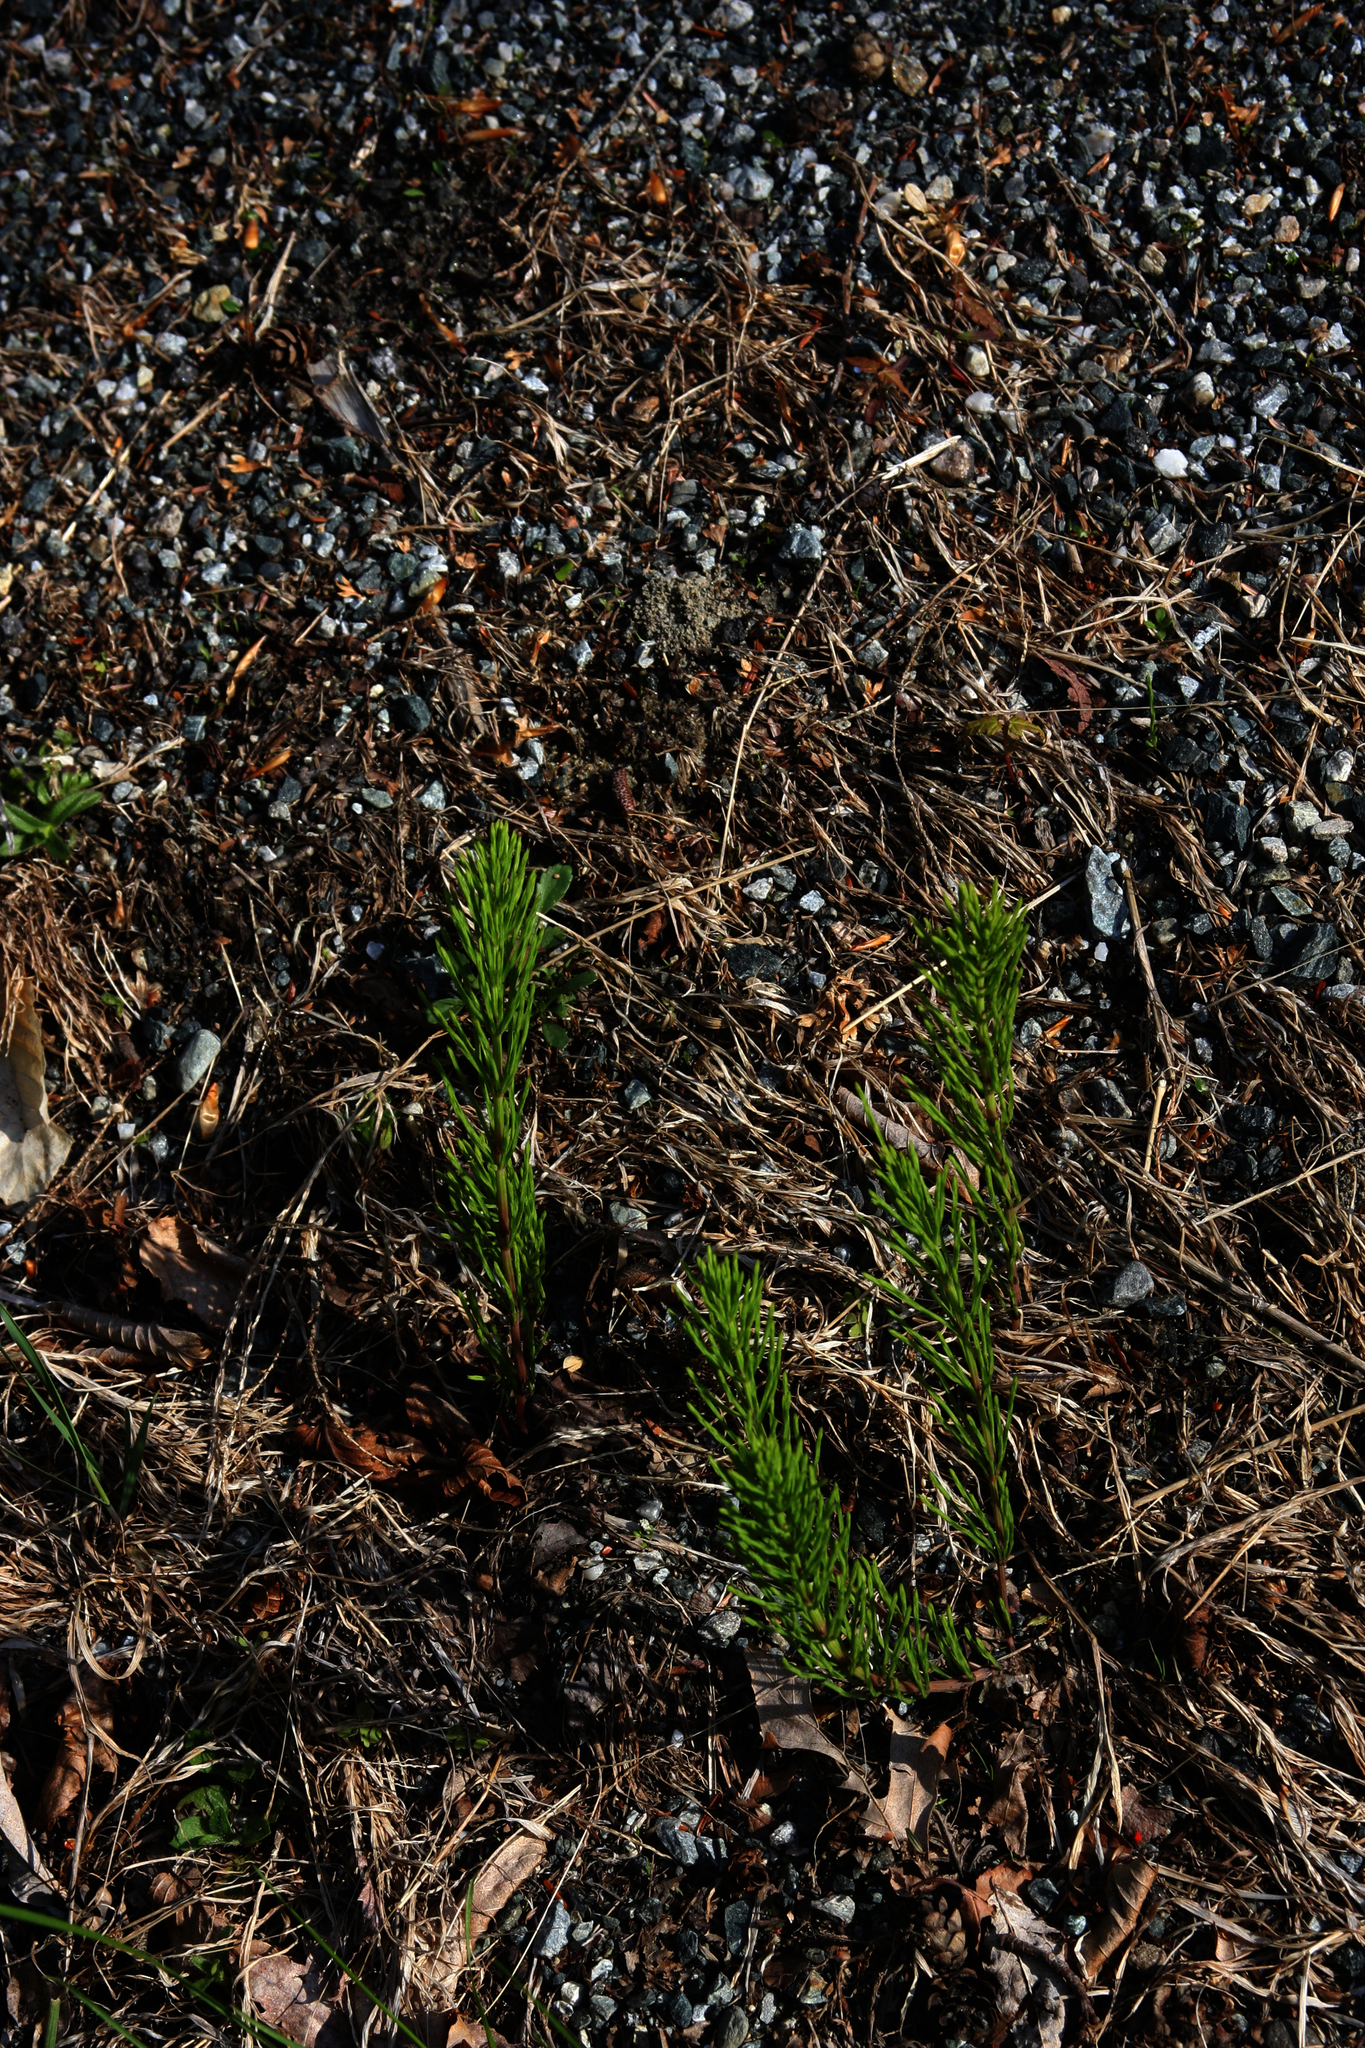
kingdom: Plantae
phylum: Tracheophyta
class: Polypodiopsida
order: Equisetales
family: Equisetaceae
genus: Equisetum
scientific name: Equisetum arvense
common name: Field horsetail
